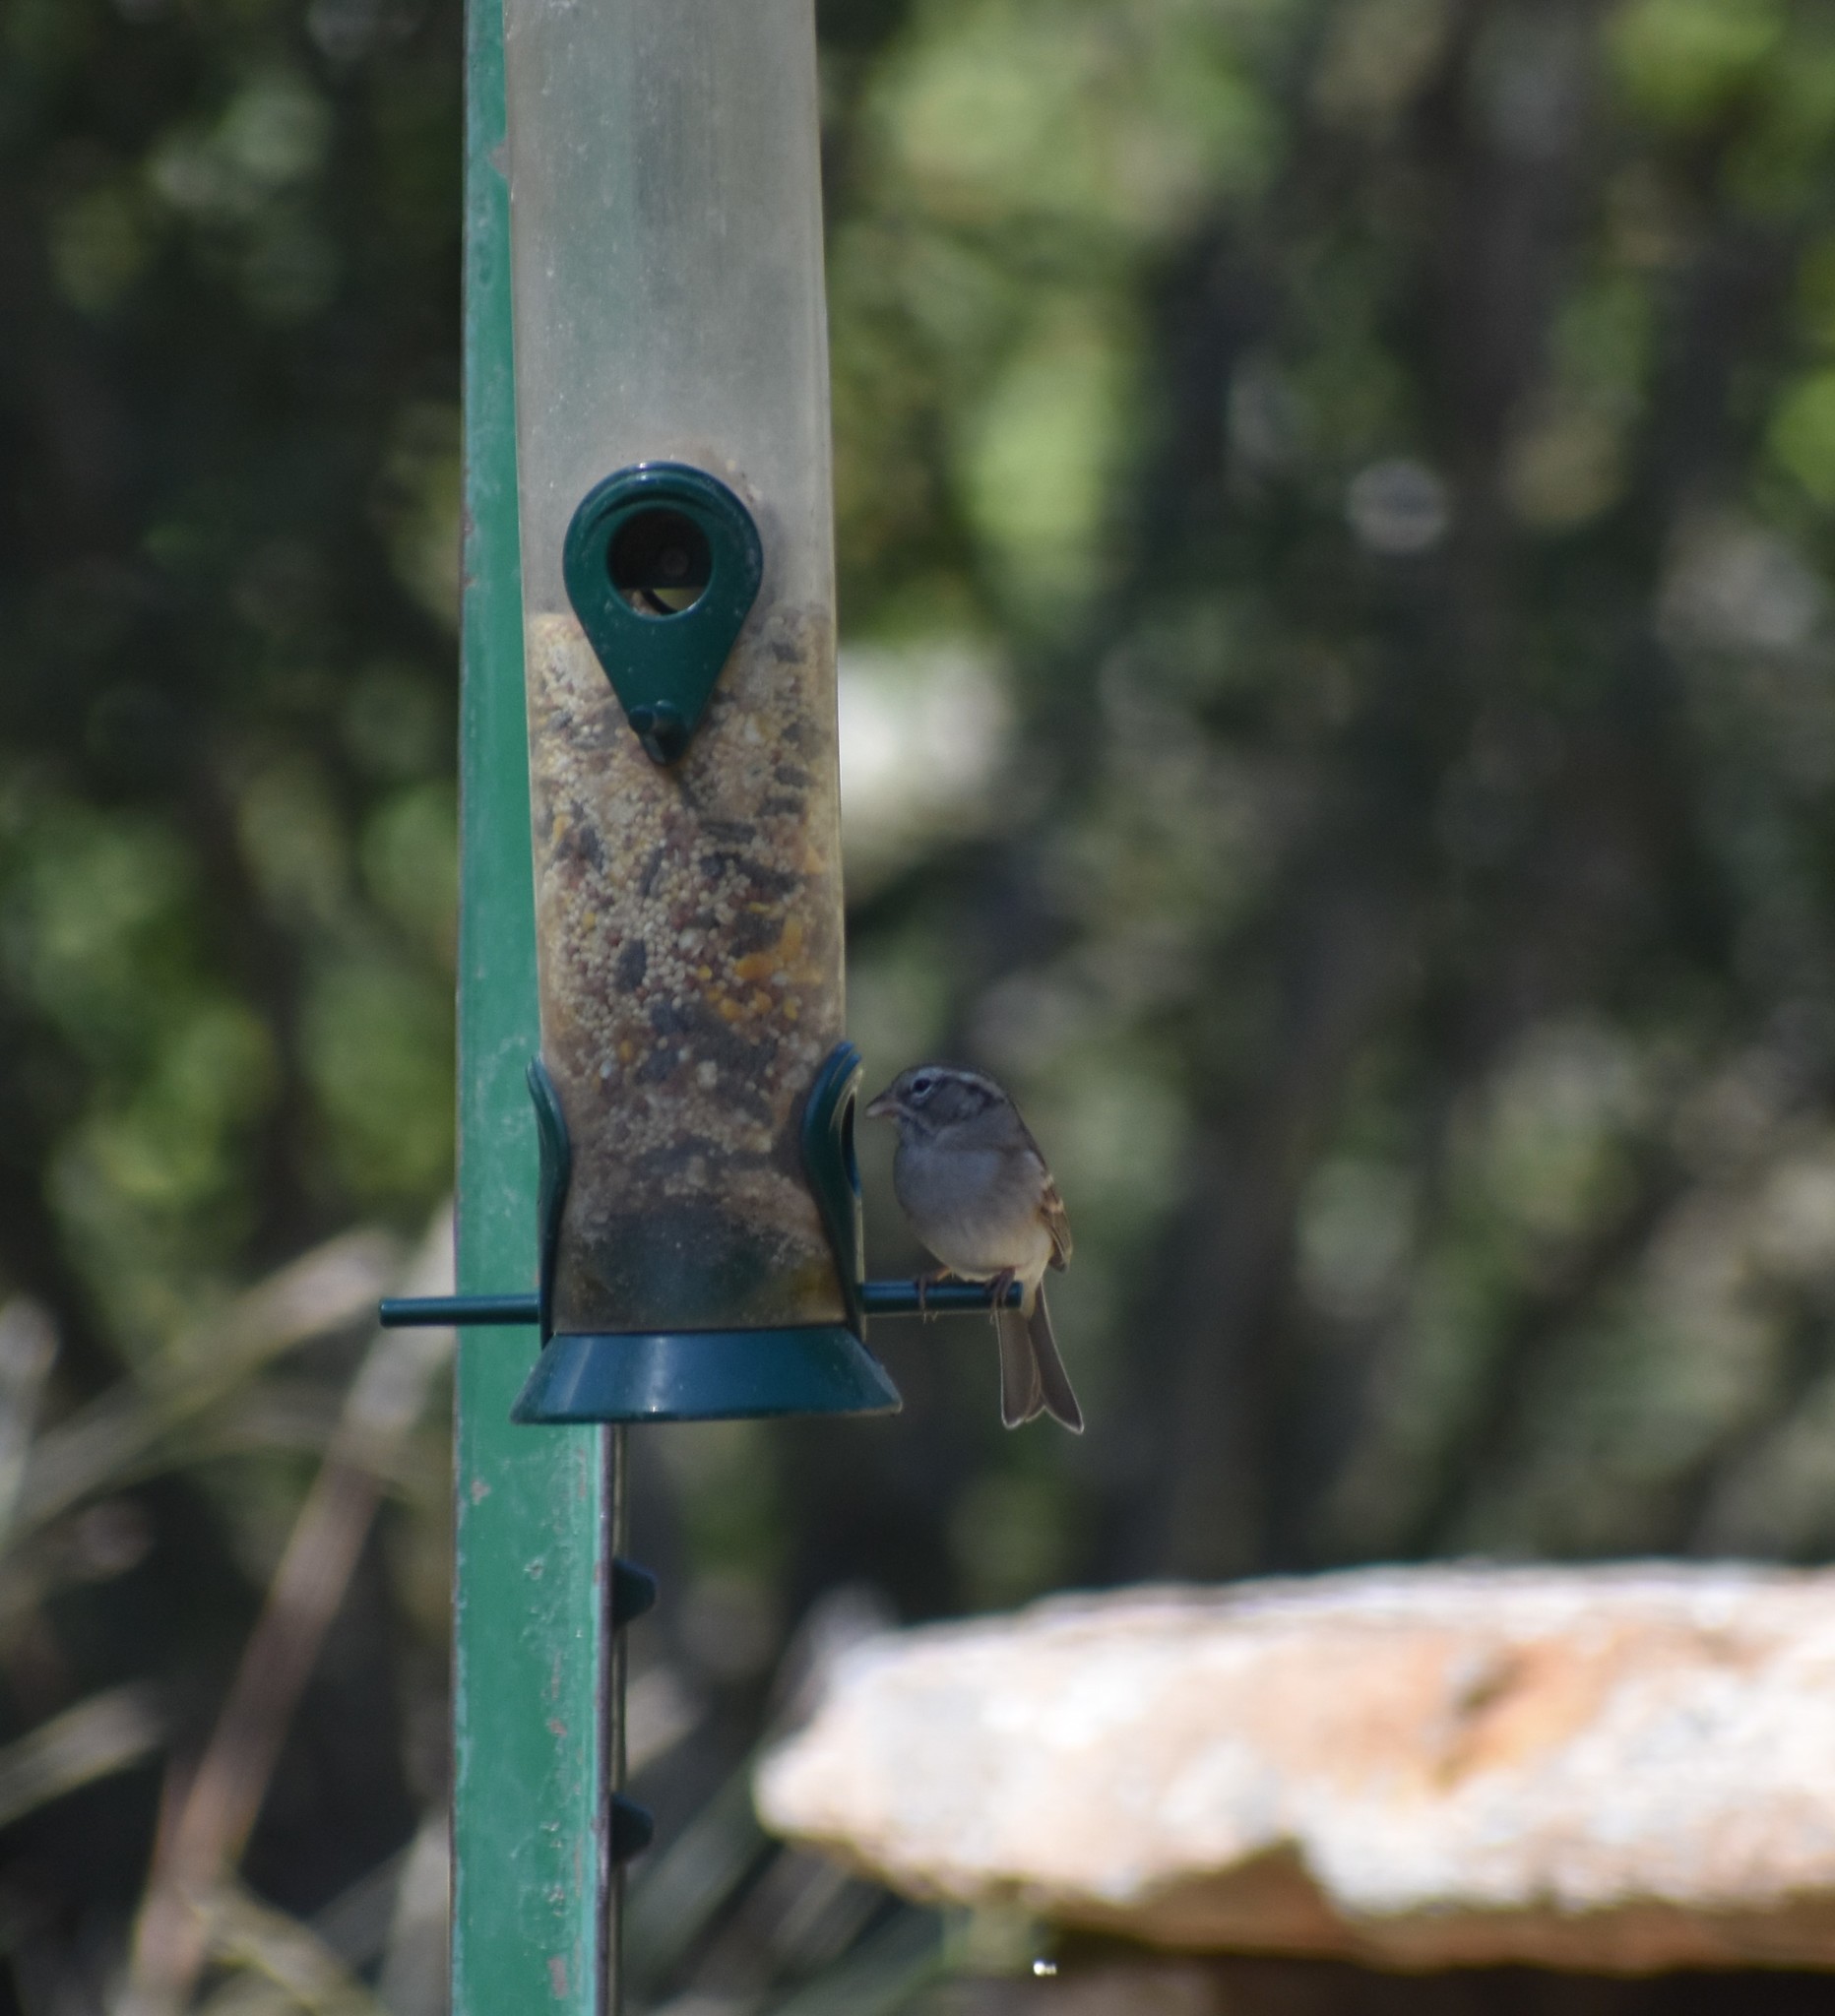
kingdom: Animalia
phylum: Chordata
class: Aves
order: Passeriformes
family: Passerellidae
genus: Spizella
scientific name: Spizella passerina
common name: Chipping sparrow
